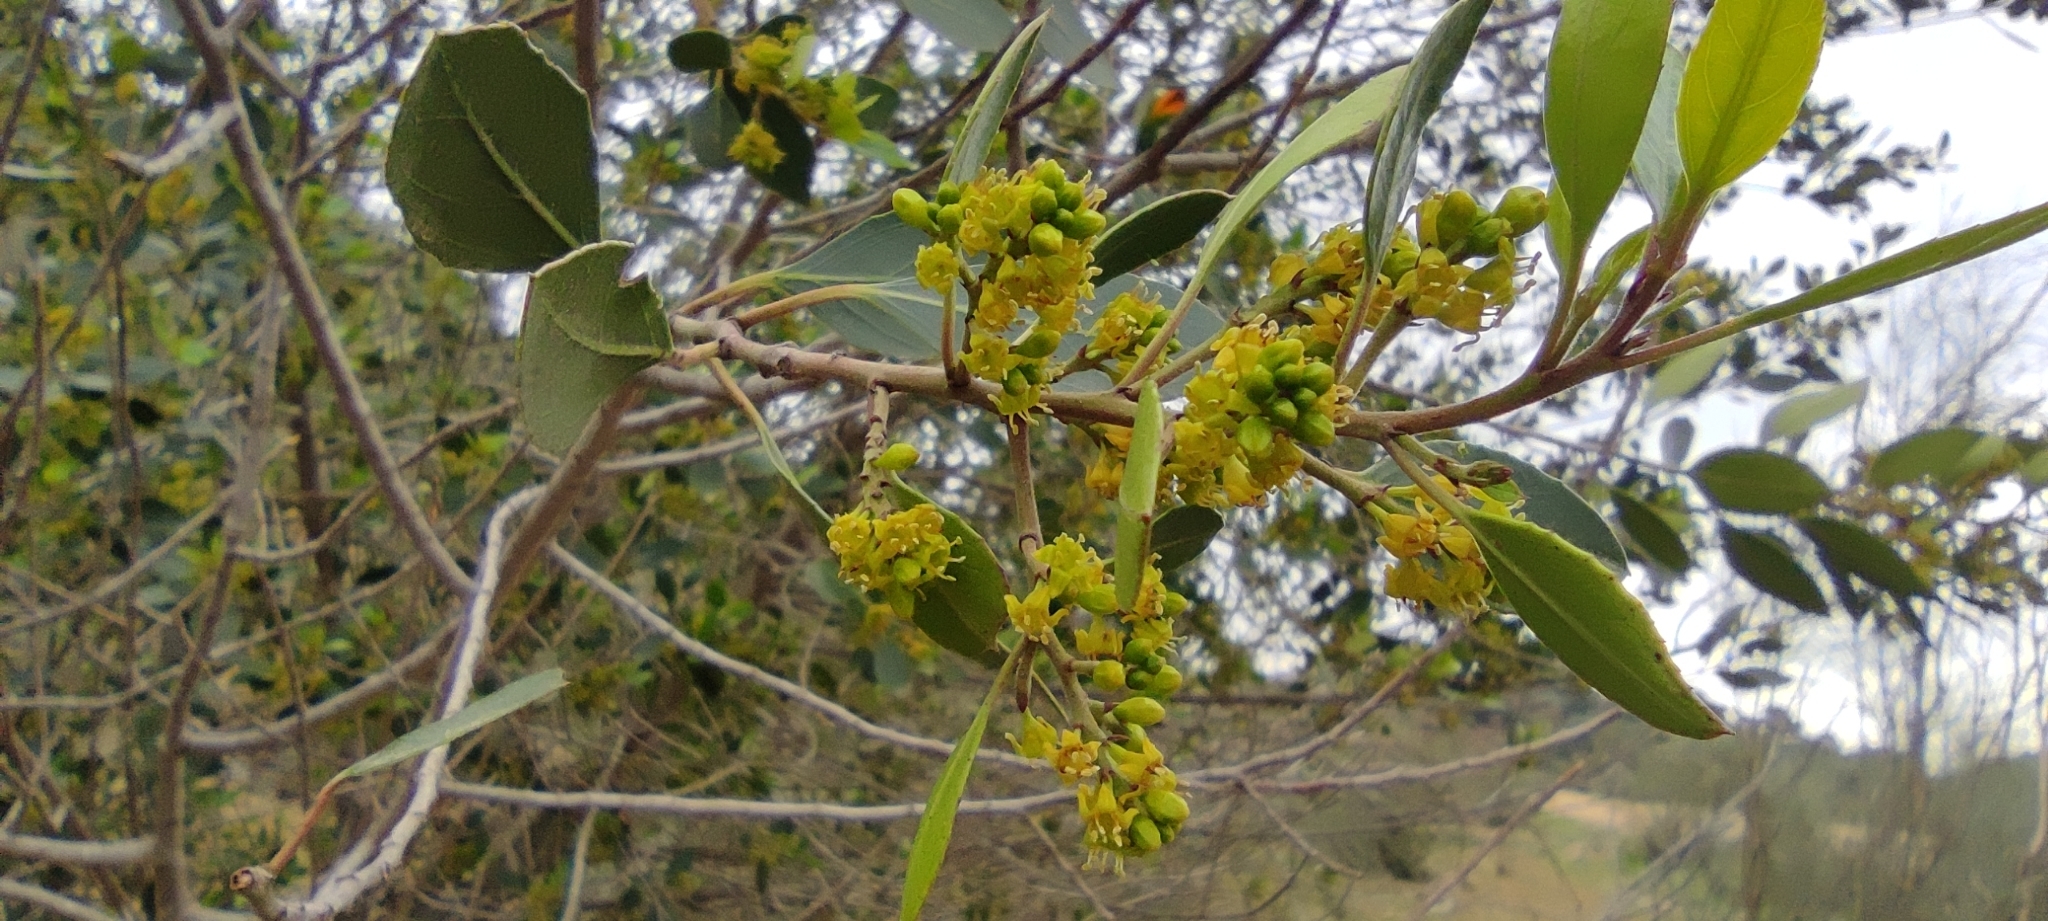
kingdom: Plantae
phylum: Tracheophyta
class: Magnoliopsida
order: Rosales
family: Rhamnaceae
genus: Rhamnus
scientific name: Rhamnus alaternus
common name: Mediterranean buckthorn
